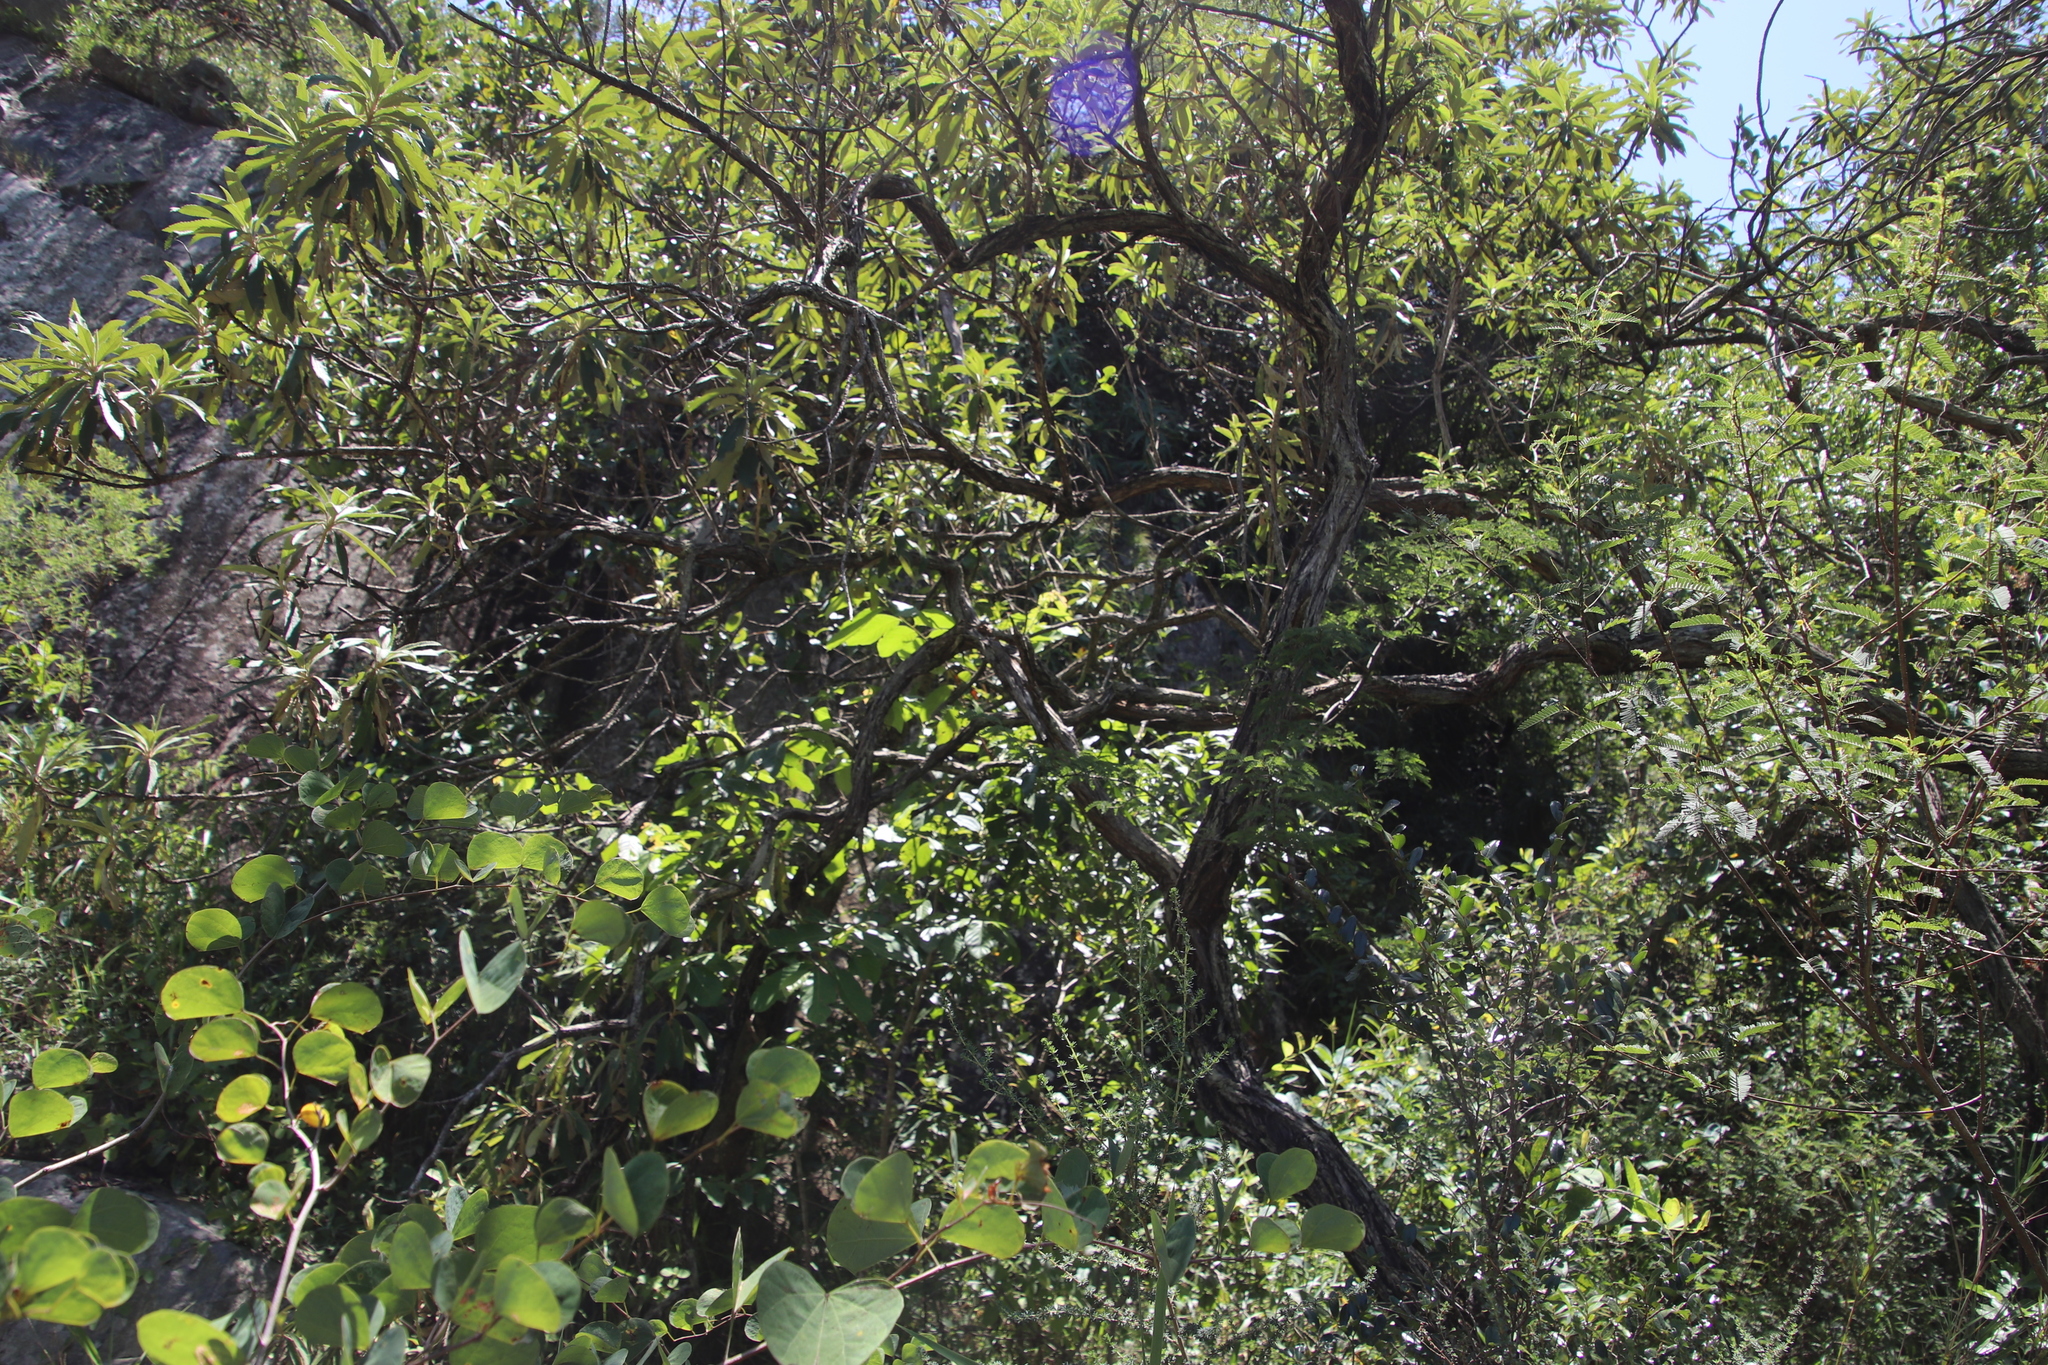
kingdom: Plantae
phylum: Tracheophyta
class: Magnoliopsida
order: Asterales
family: Asteraceae
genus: Tarchonanthus
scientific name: Tarchonanthus trilobus
